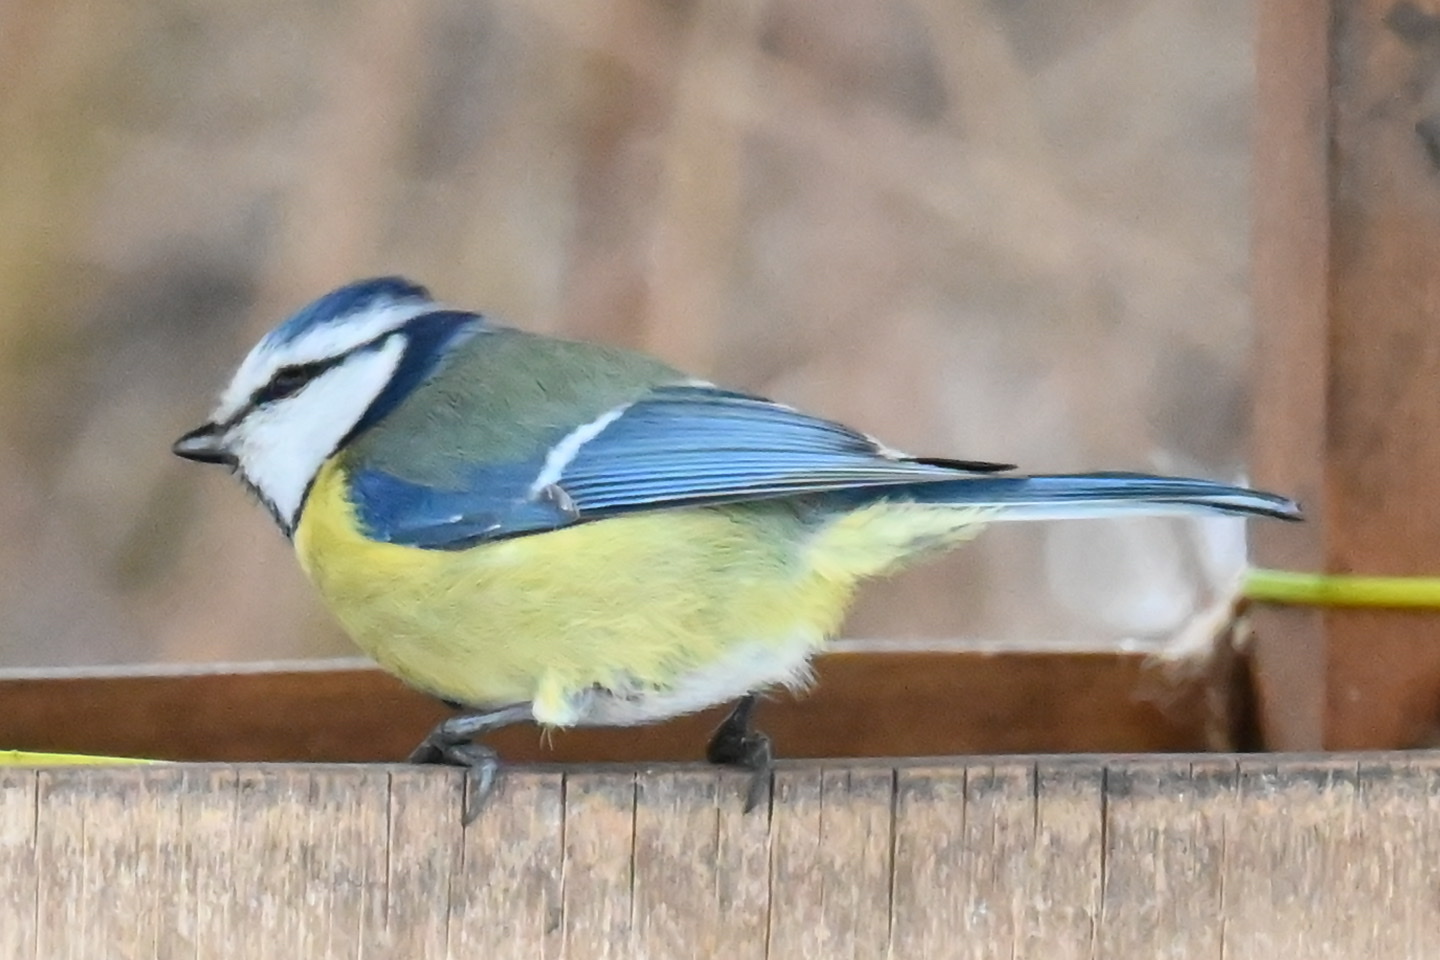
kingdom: Animalia
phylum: Chordata
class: Aves
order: Passeriformes
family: Paridae
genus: Cyanistes
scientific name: Cyanistes caeruleus
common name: Eurasian blue tit
